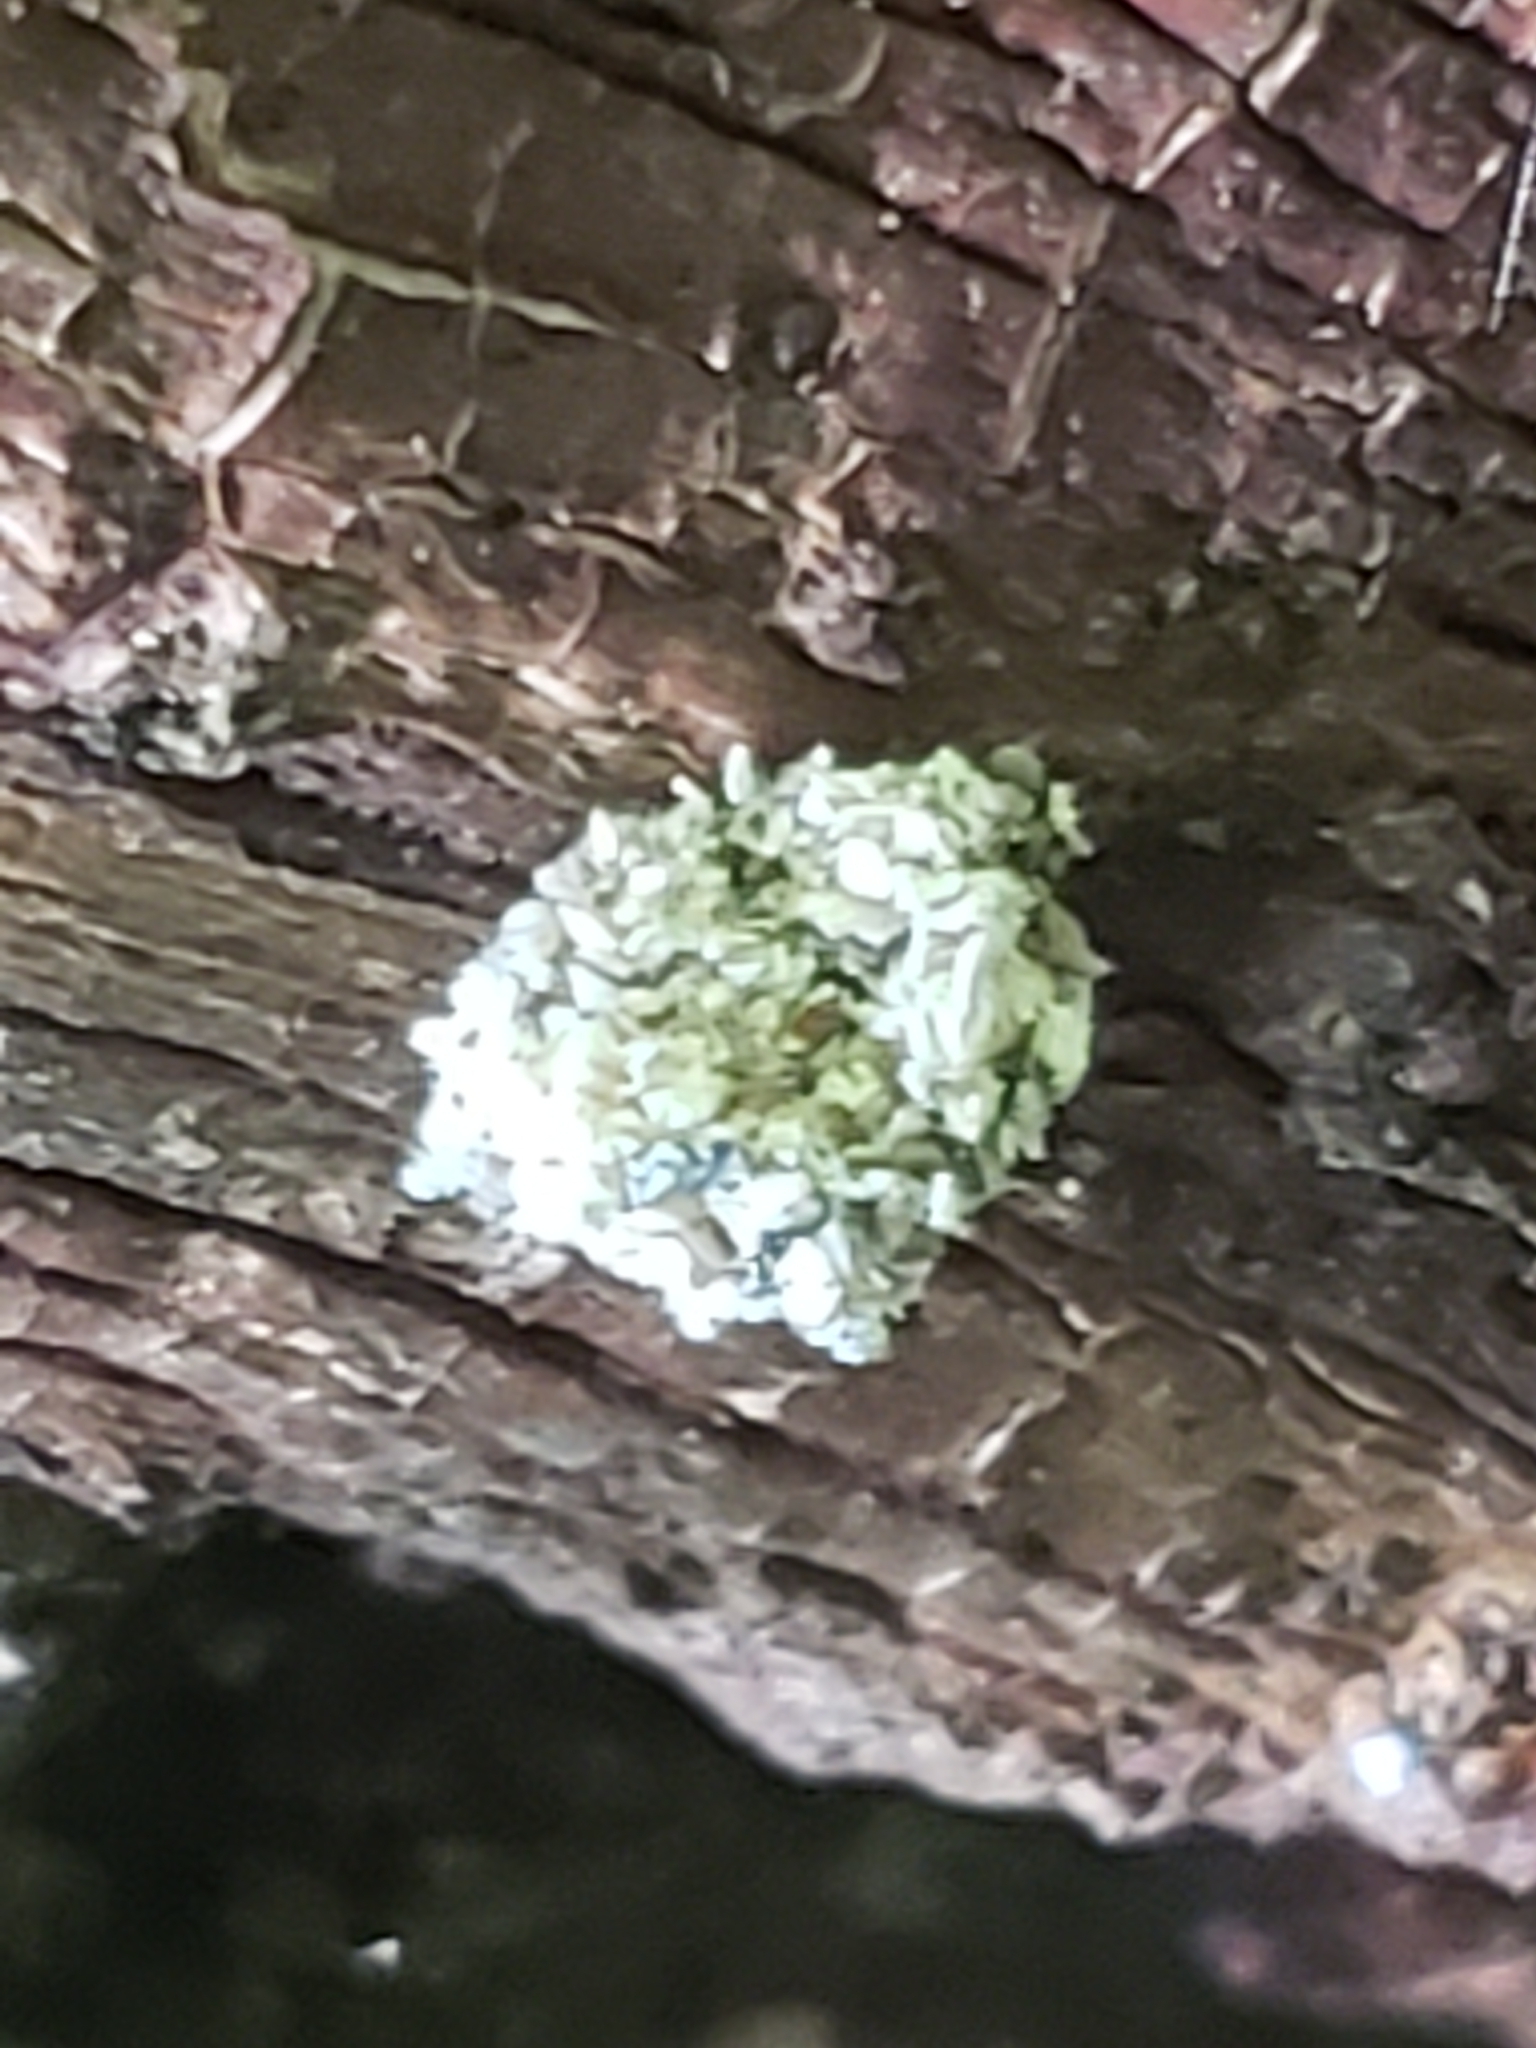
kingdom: Animalia
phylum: Arthropoda
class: Insecta
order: Neuroptera
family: Chrysopidae
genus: Leucochrysa
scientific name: Leucochrysa pavida
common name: Lichen-carrying green lacewing
